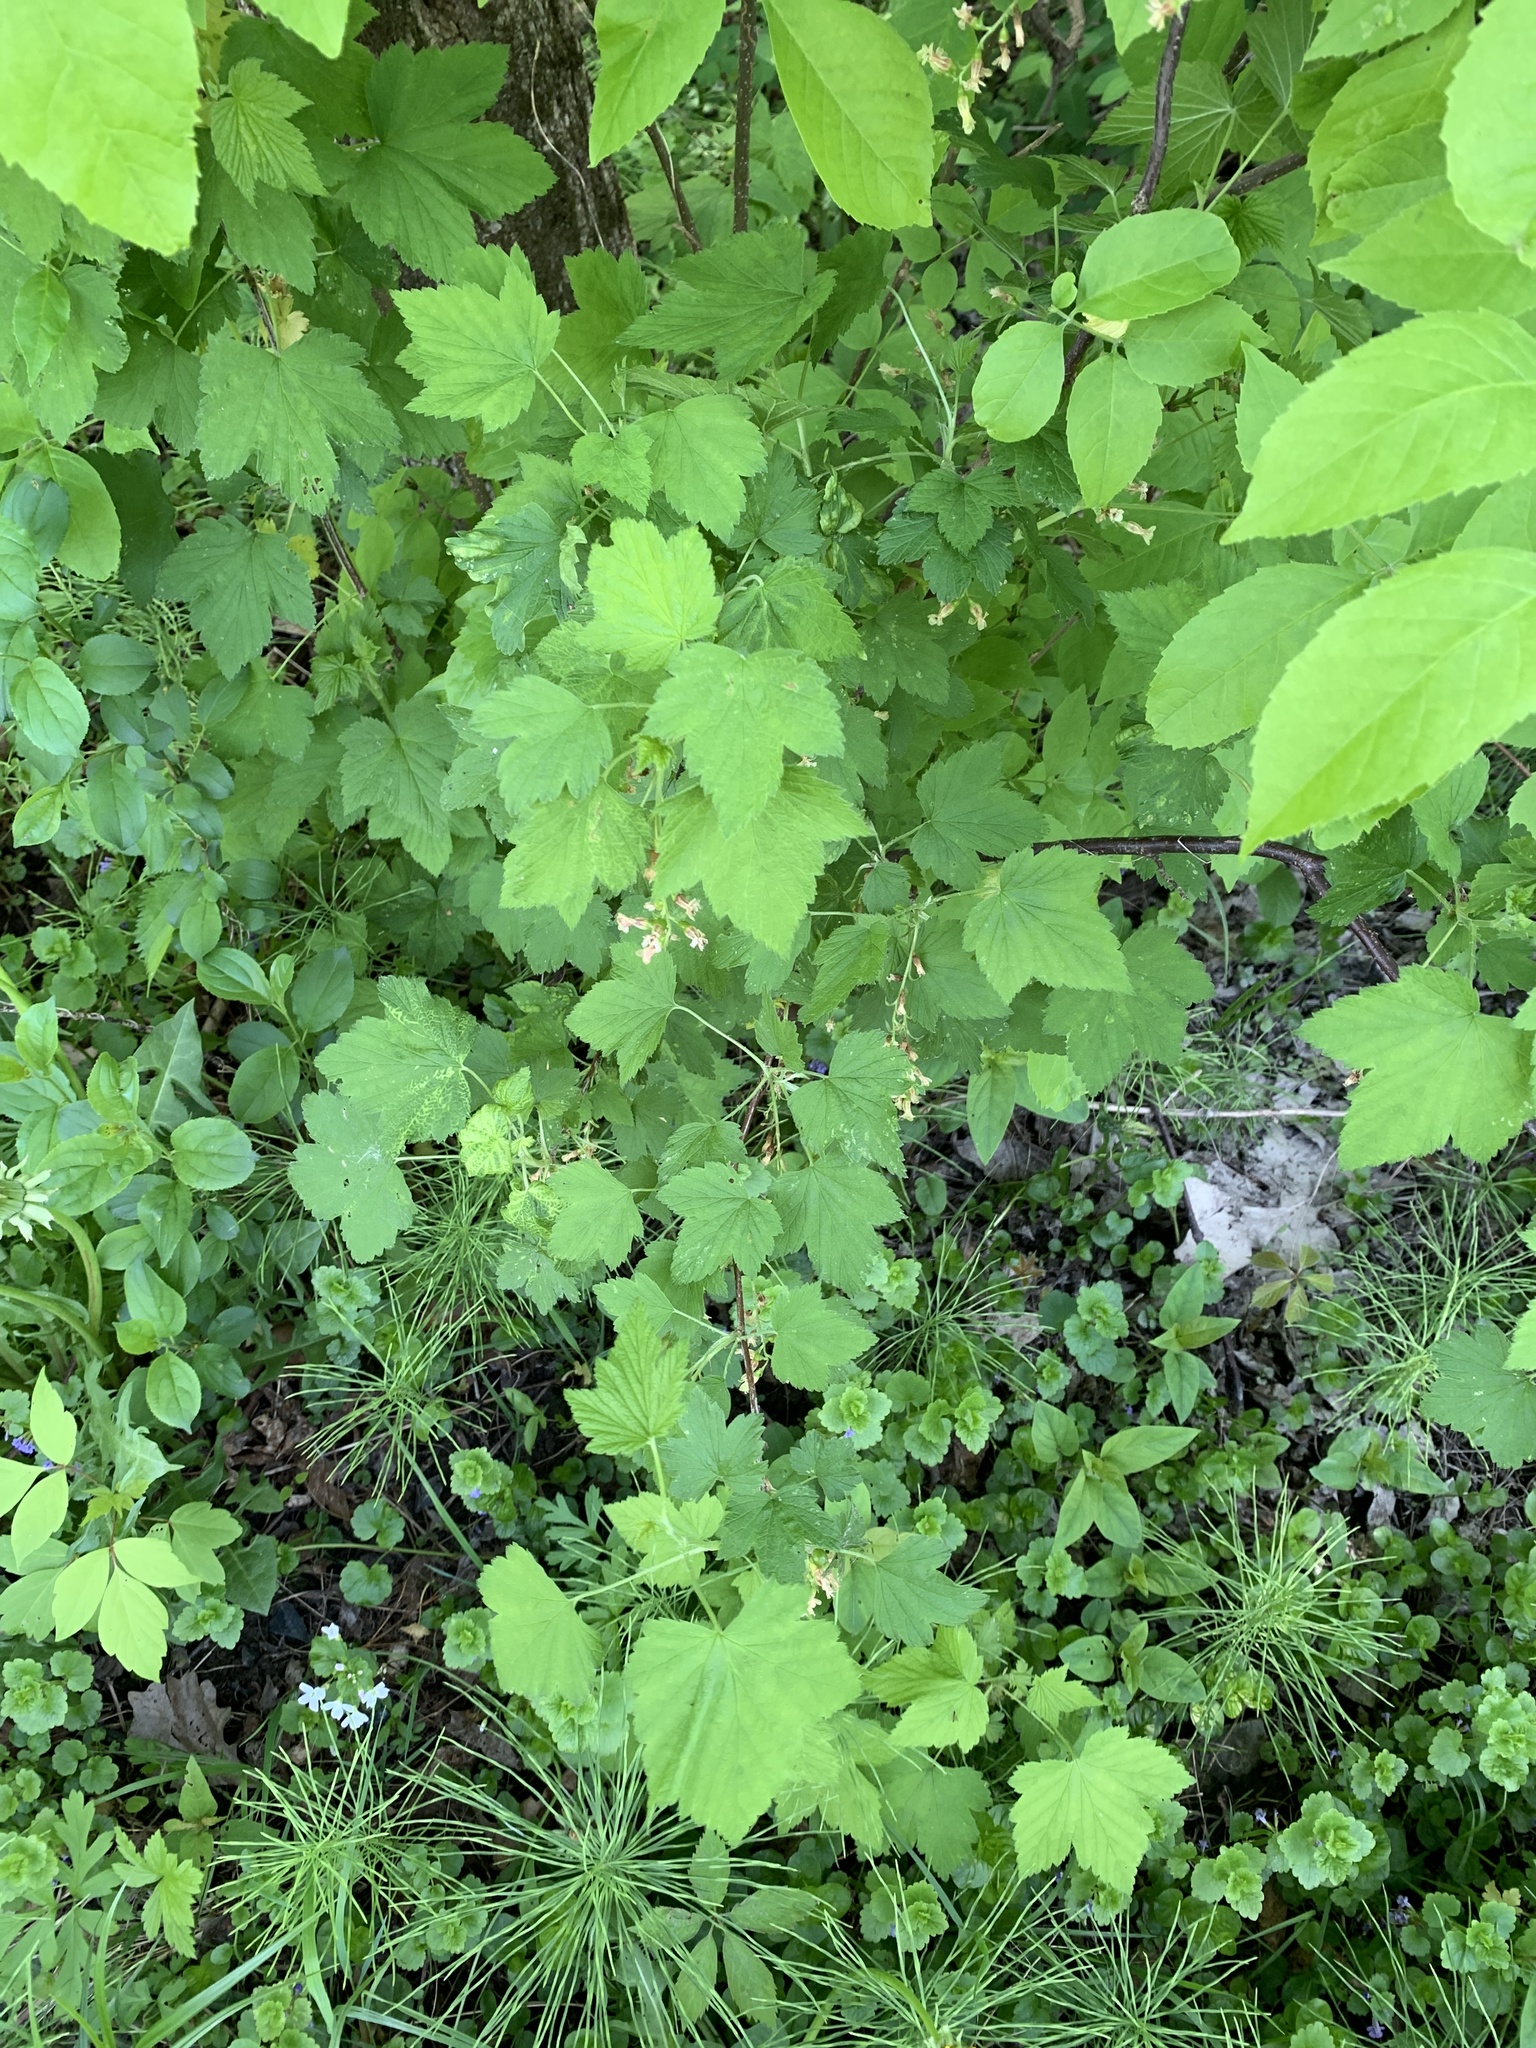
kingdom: Plantae
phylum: Tracheophyta
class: Magnoliopsida
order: Saxifragales
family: Grossulariaceae
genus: Ribes
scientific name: Ribes americanum
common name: American black currant
